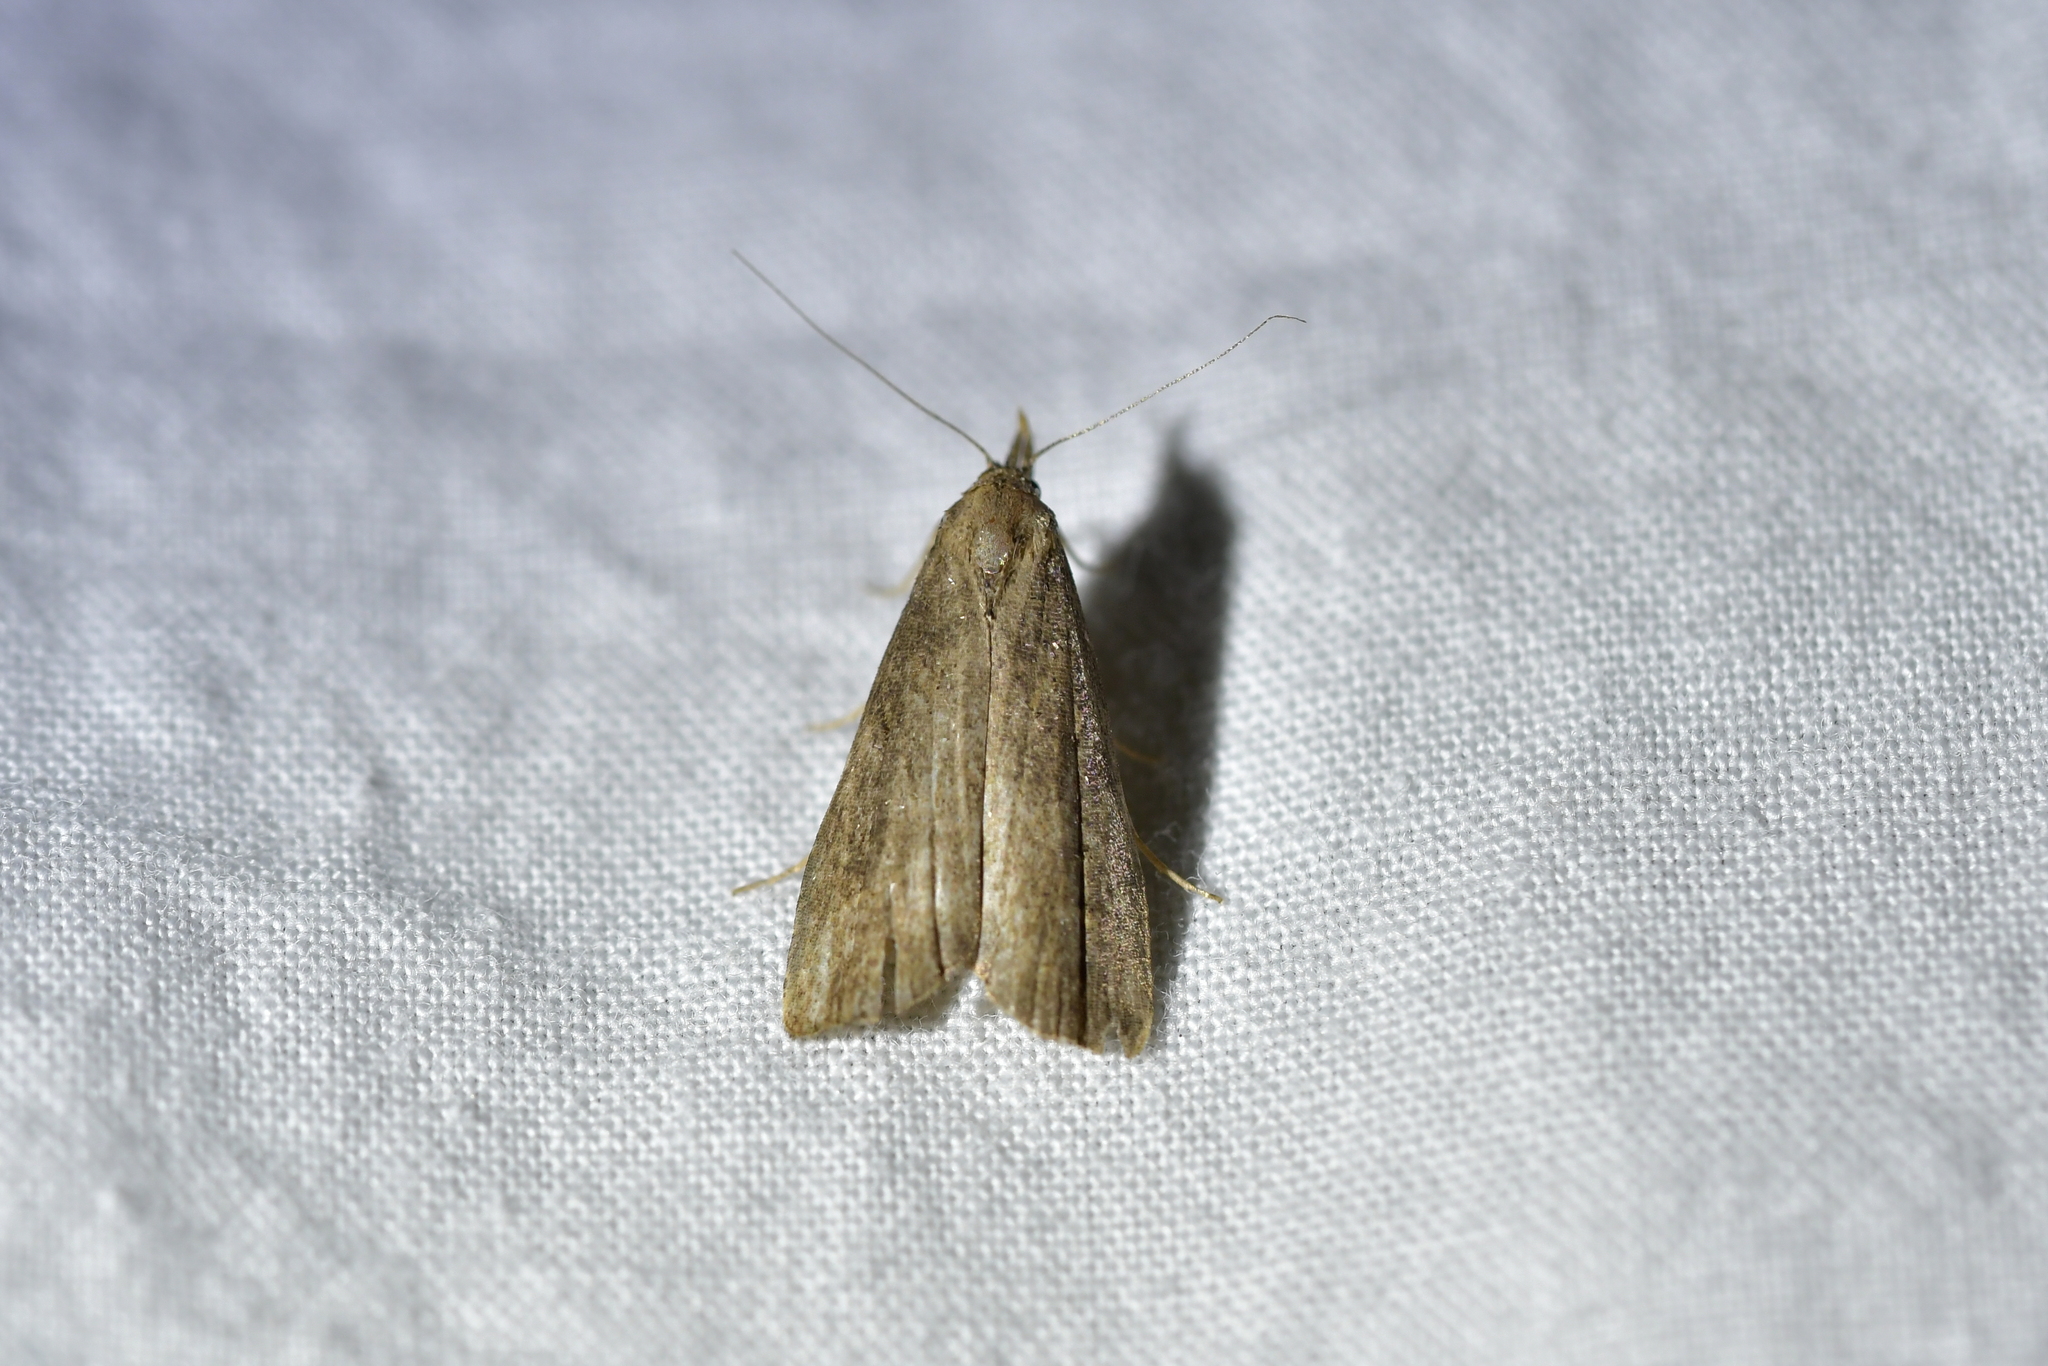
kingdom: Animalia
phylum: Arthropoda
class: Insecta
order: Lepidoptera
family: Erebidae
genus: Schrankia
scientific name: Schrankia costaestrigalis
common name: Pinion-streaked snout
